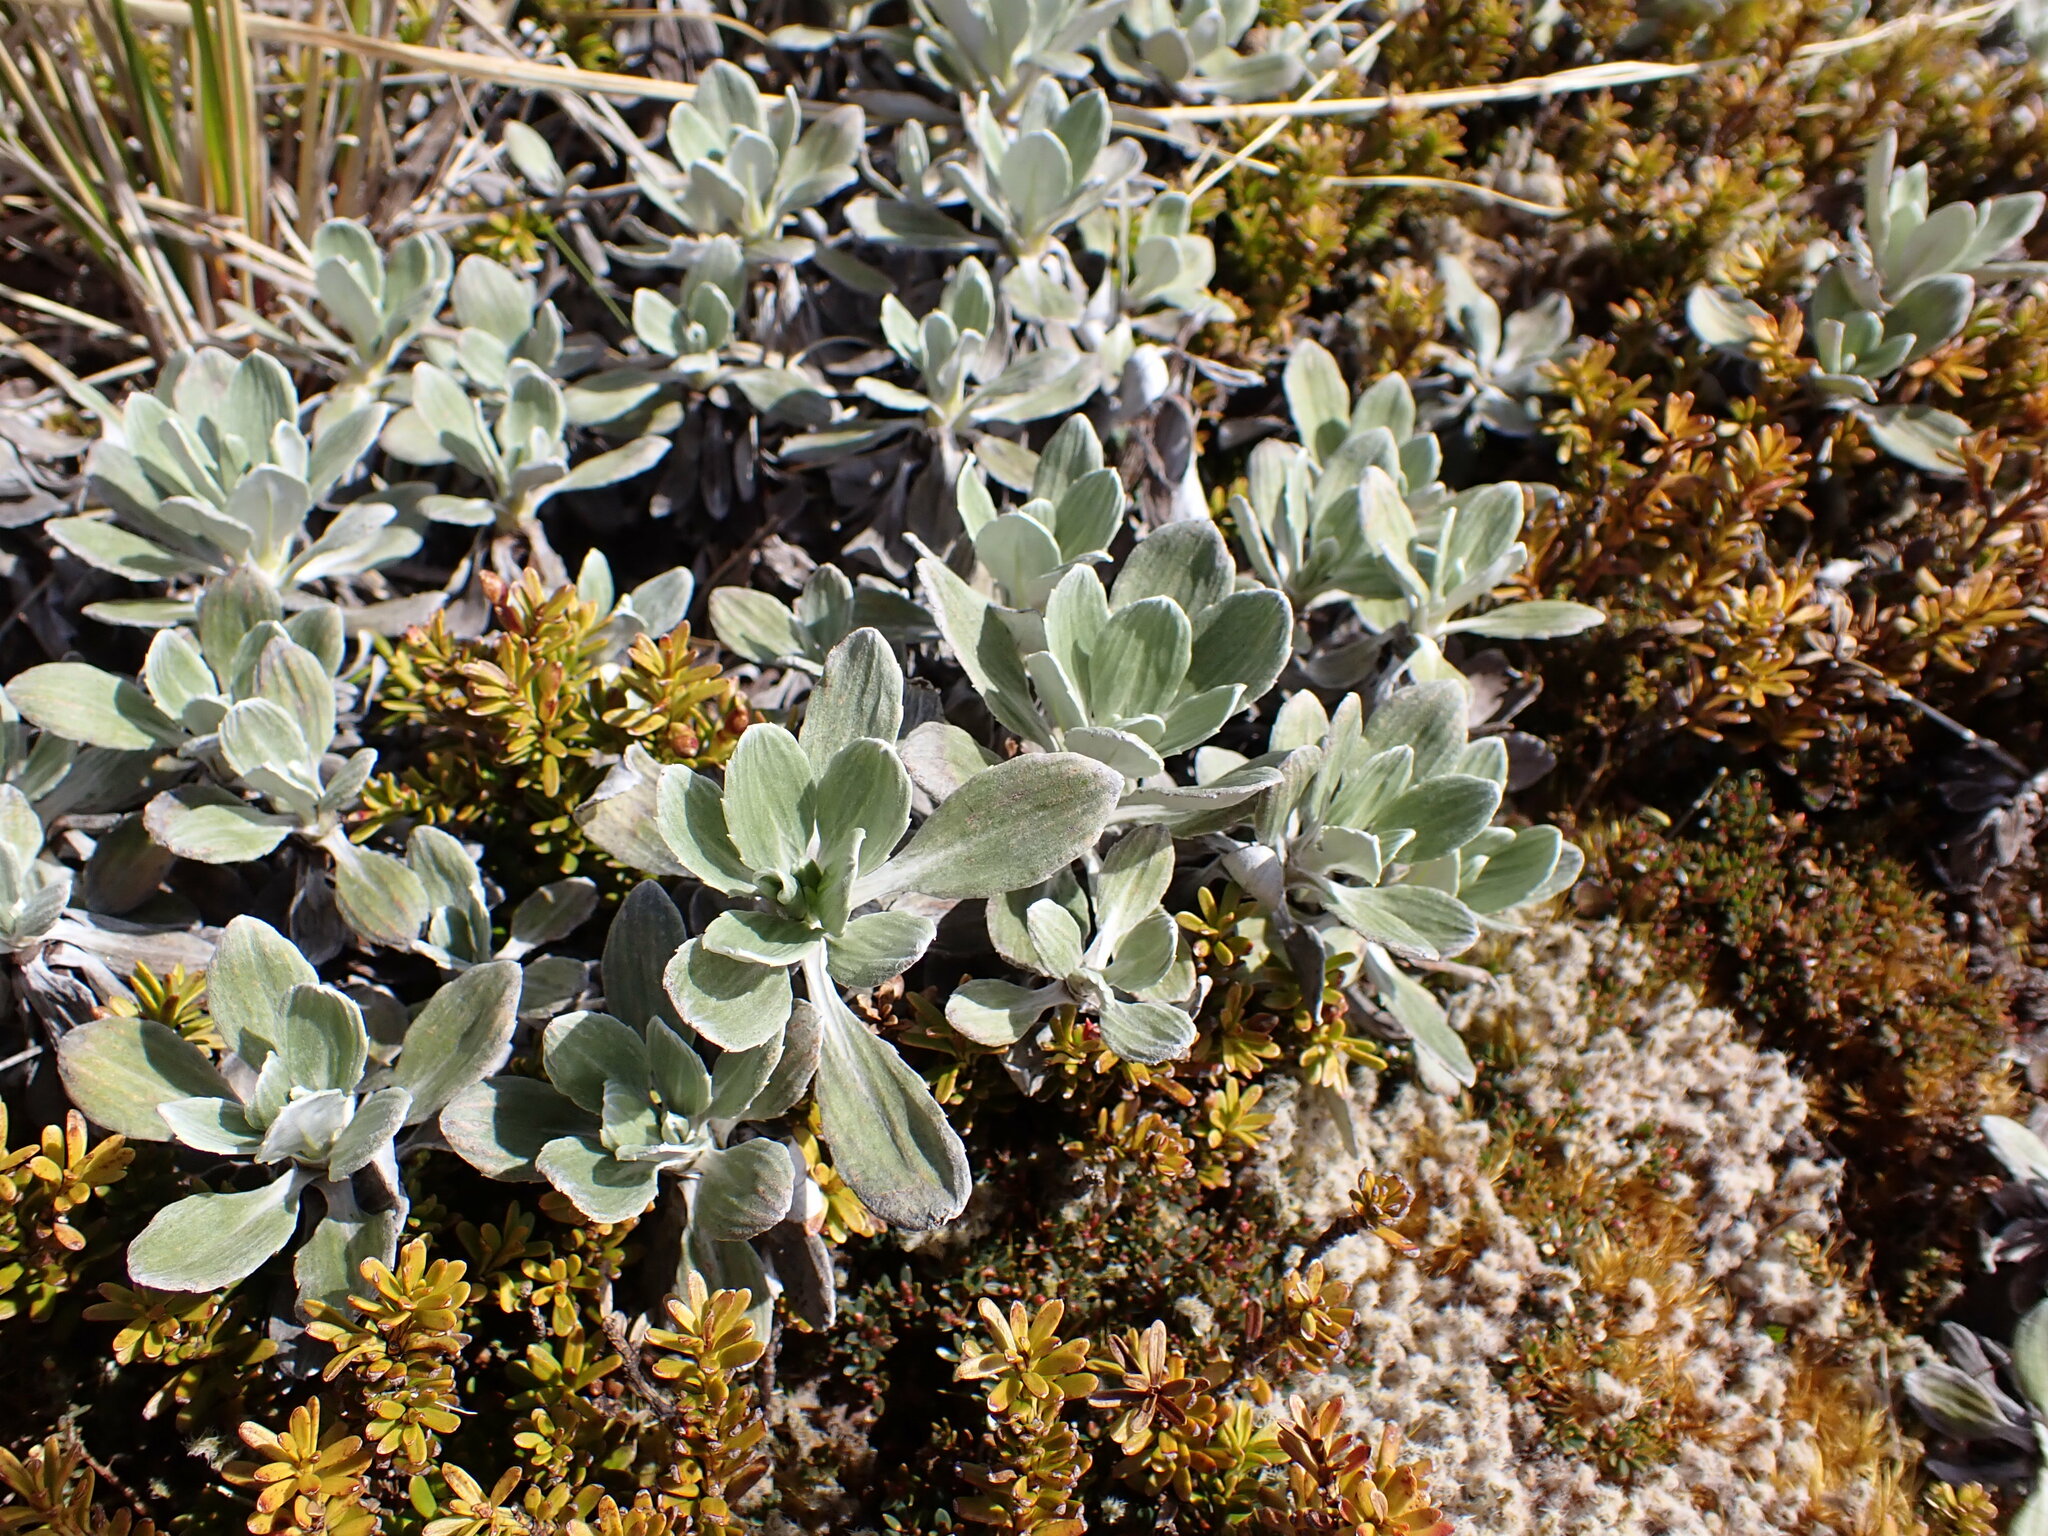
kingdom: Plantae
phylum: Tracheophyta
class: Magnoliopsida
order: Asterales
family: Asteraceae
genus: Celmisia
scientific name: Celmisia discolor
